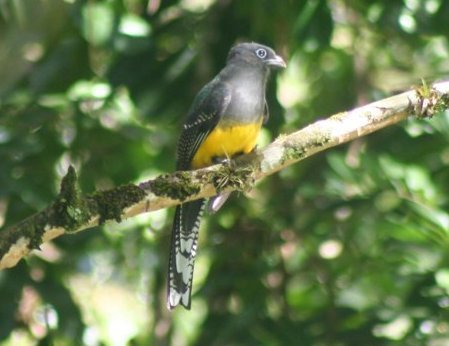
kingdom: Animalia
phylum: Chordata
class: Aves
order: Trogoniformes
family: Trogonidae
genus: Trogon
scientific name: Trogon viridis
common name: Green-backed trogon
